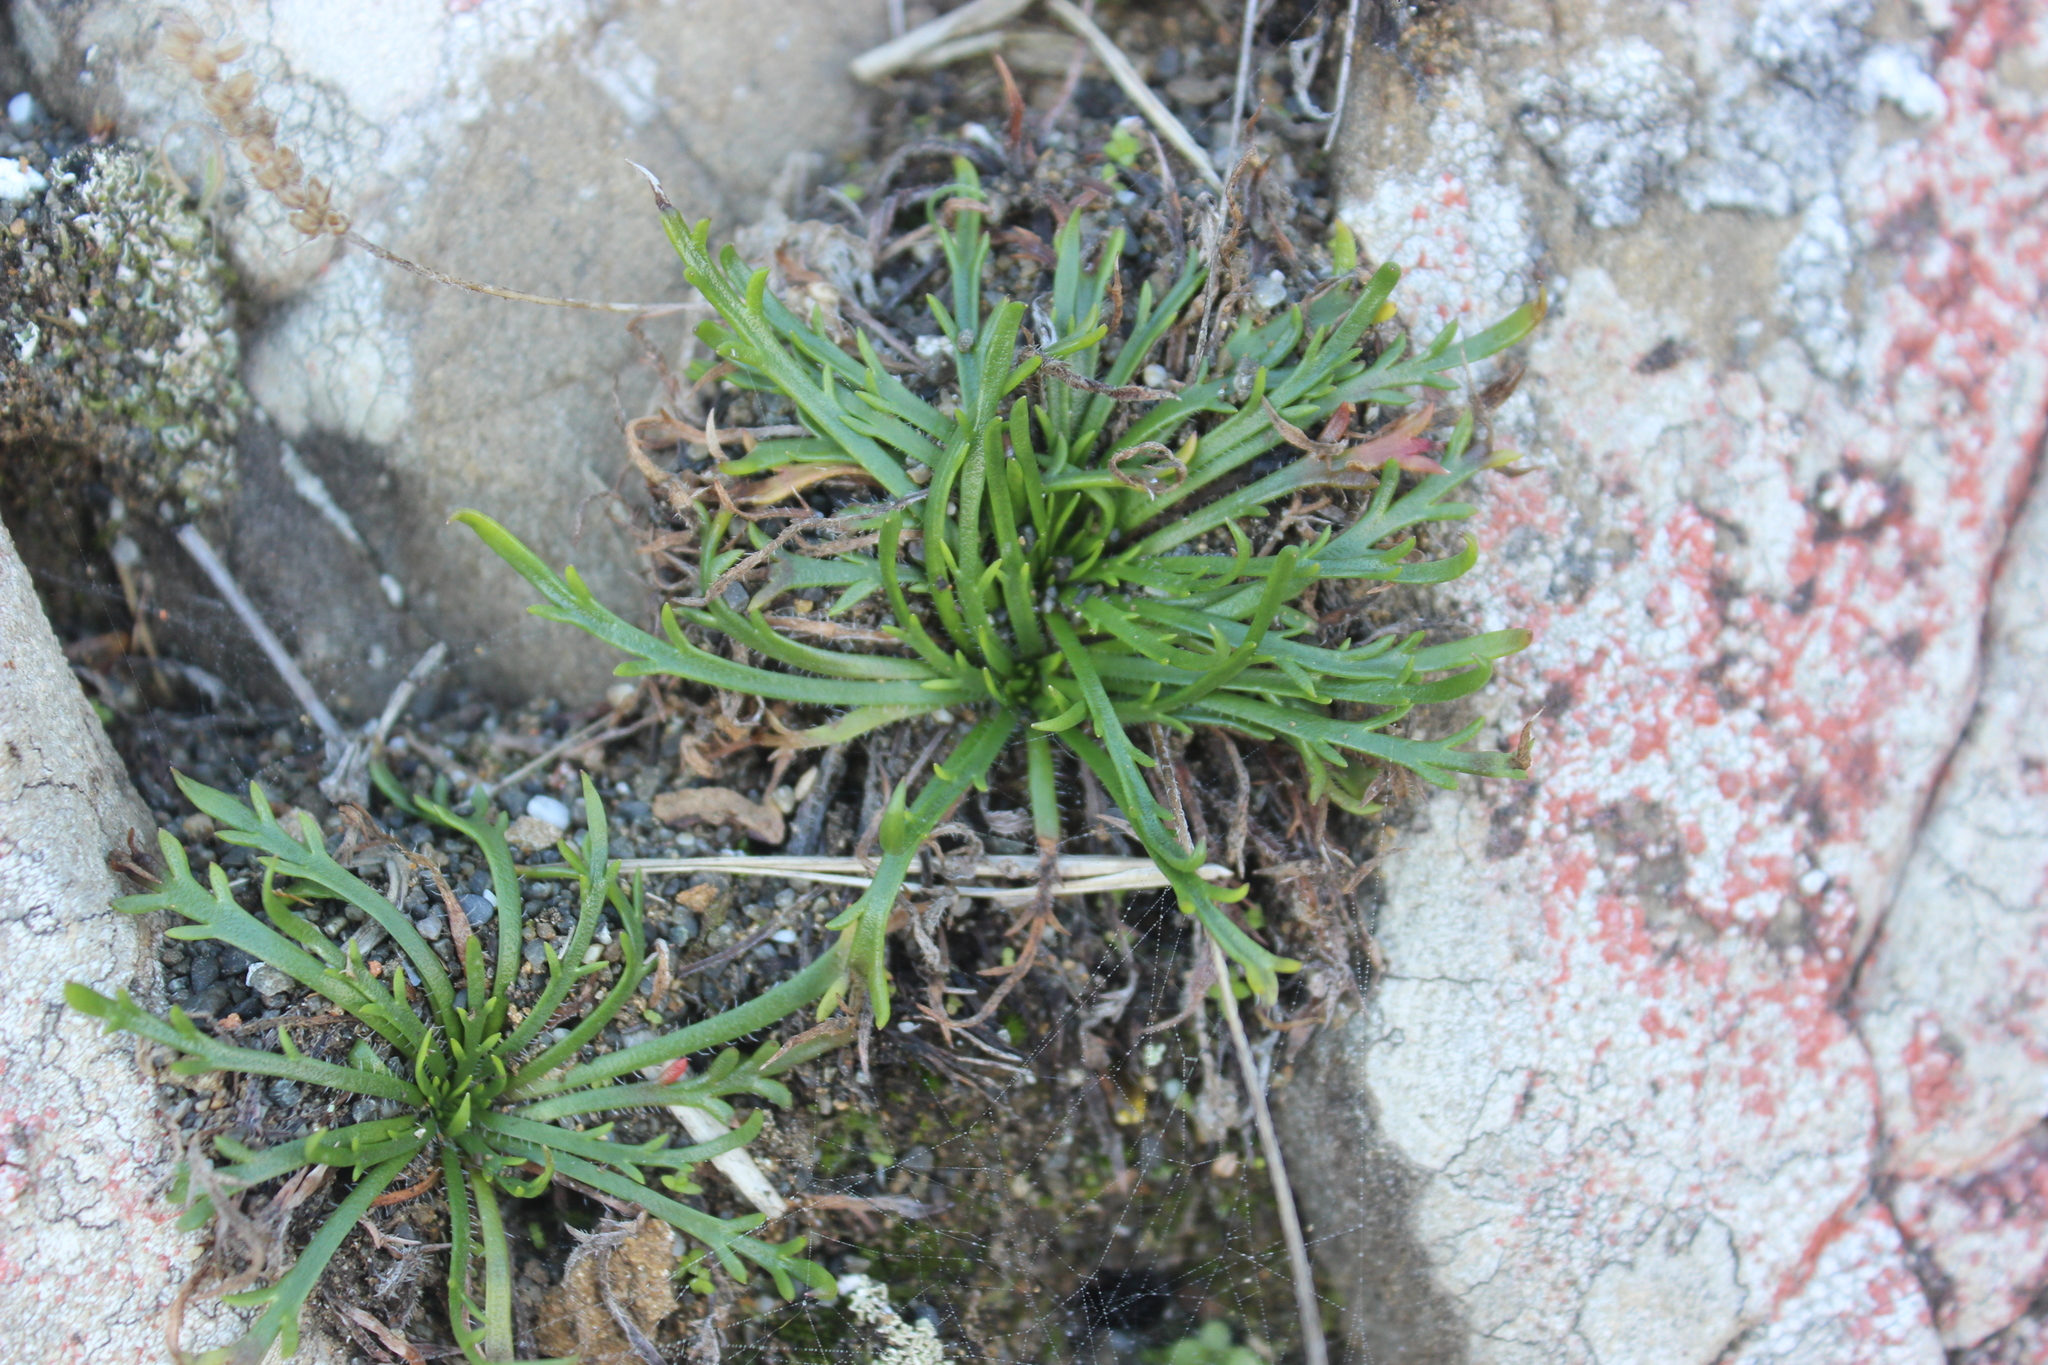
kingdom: Plantae
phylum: Tracheophyta
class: Magnoliopsida
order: Lamiales
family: Plantaginaceae
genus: Plantago
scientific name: Plantago coronopus
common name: Buck's-horn plantain
